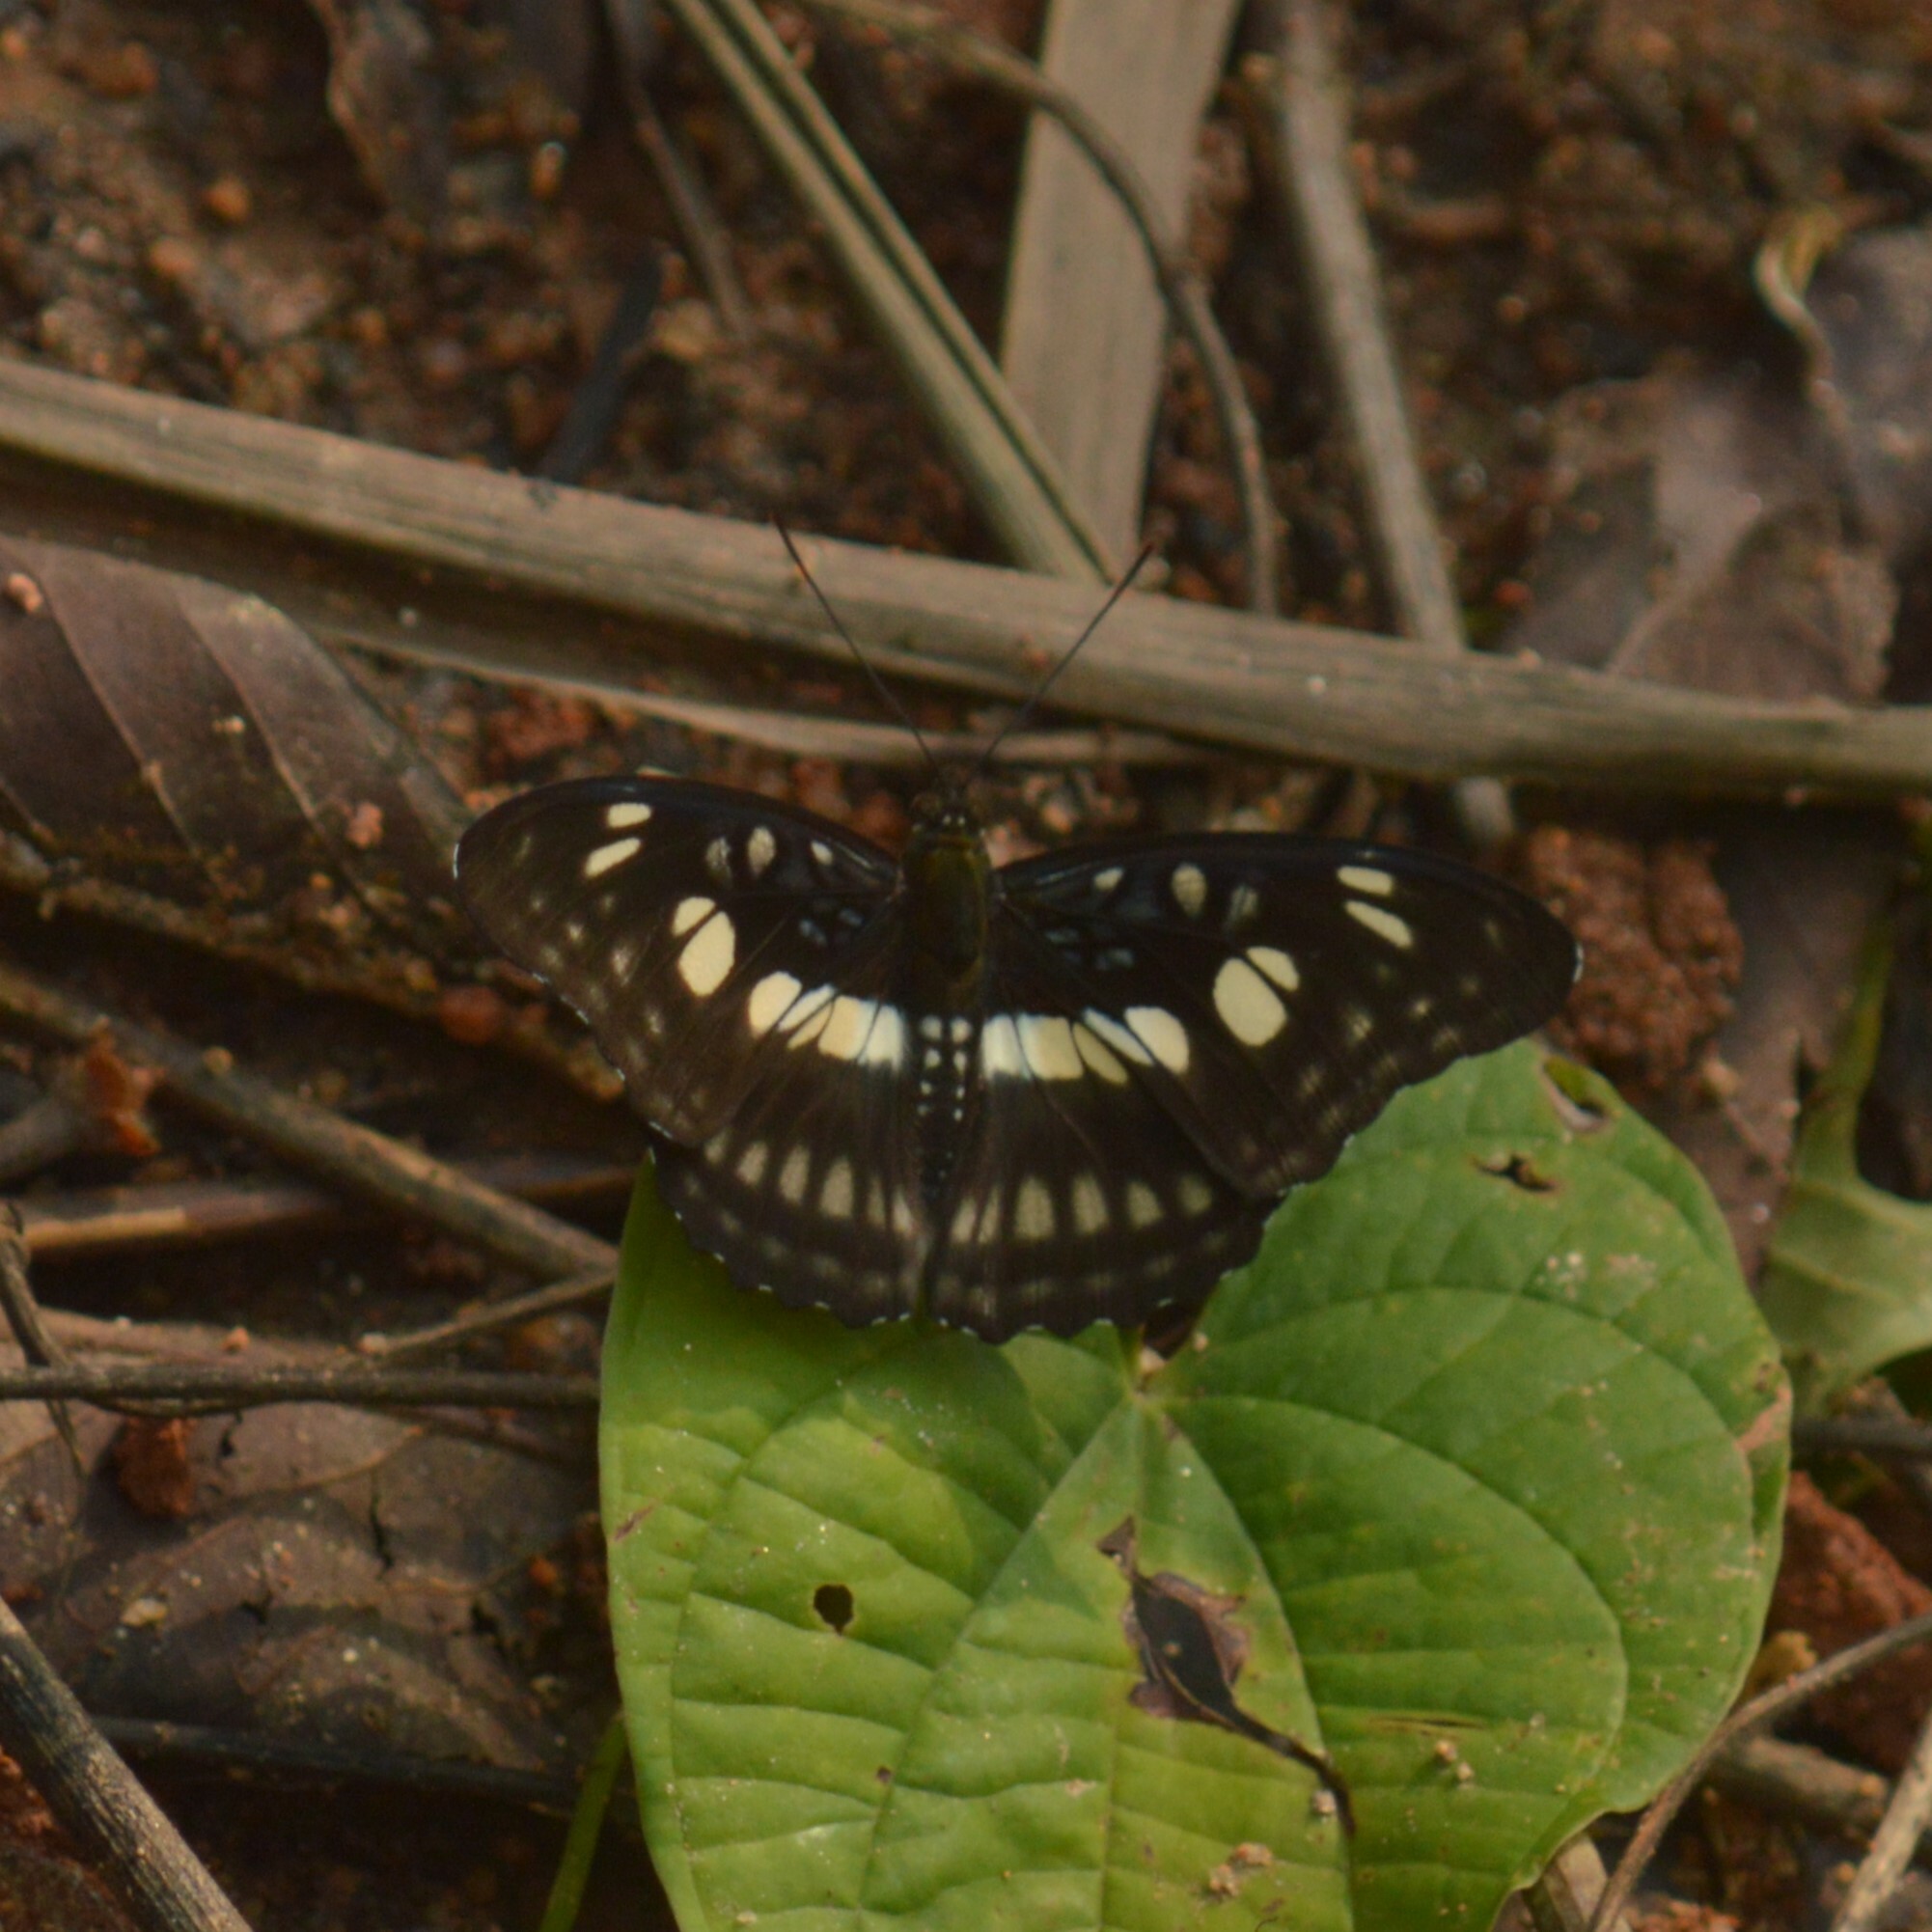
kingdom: Animalia
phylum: Arthropoda
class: Insecta
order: Lepidoptera
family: Nymphalidae
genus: Parathyma
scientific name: Parathyma ranga
